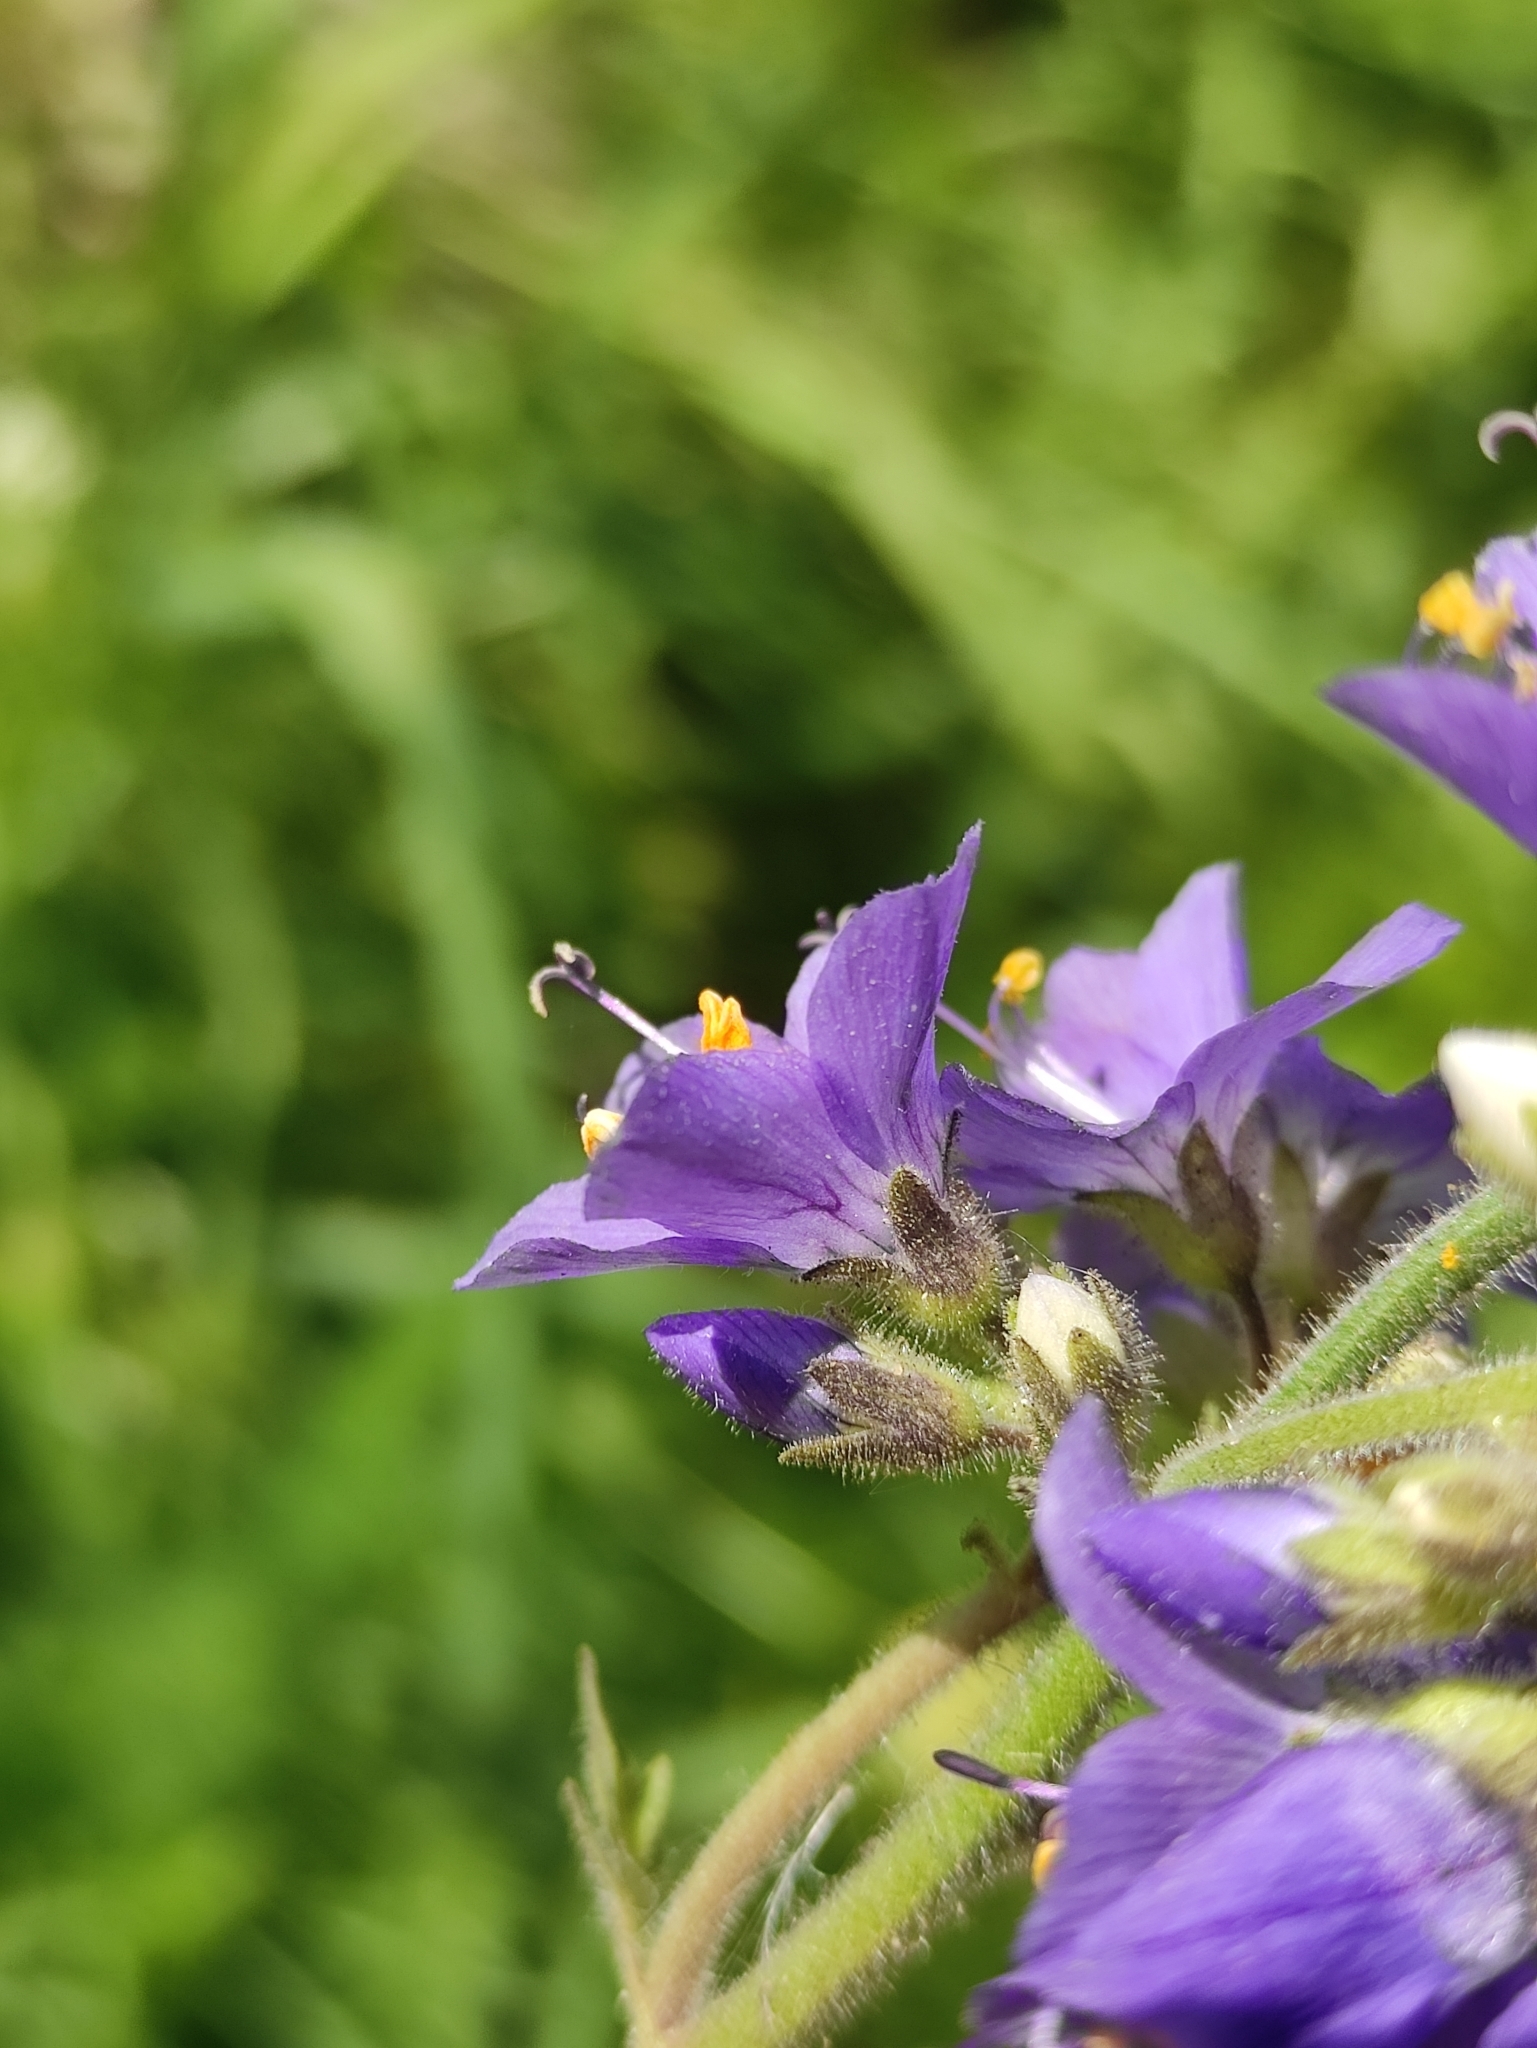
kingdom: Plantae
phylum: Tracheophyta
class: Magnoliopsida
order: Ericales
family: Polemoniaceae
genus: Polemonium
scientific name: Polemonium caeruleum
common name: Jacob's-ladder
